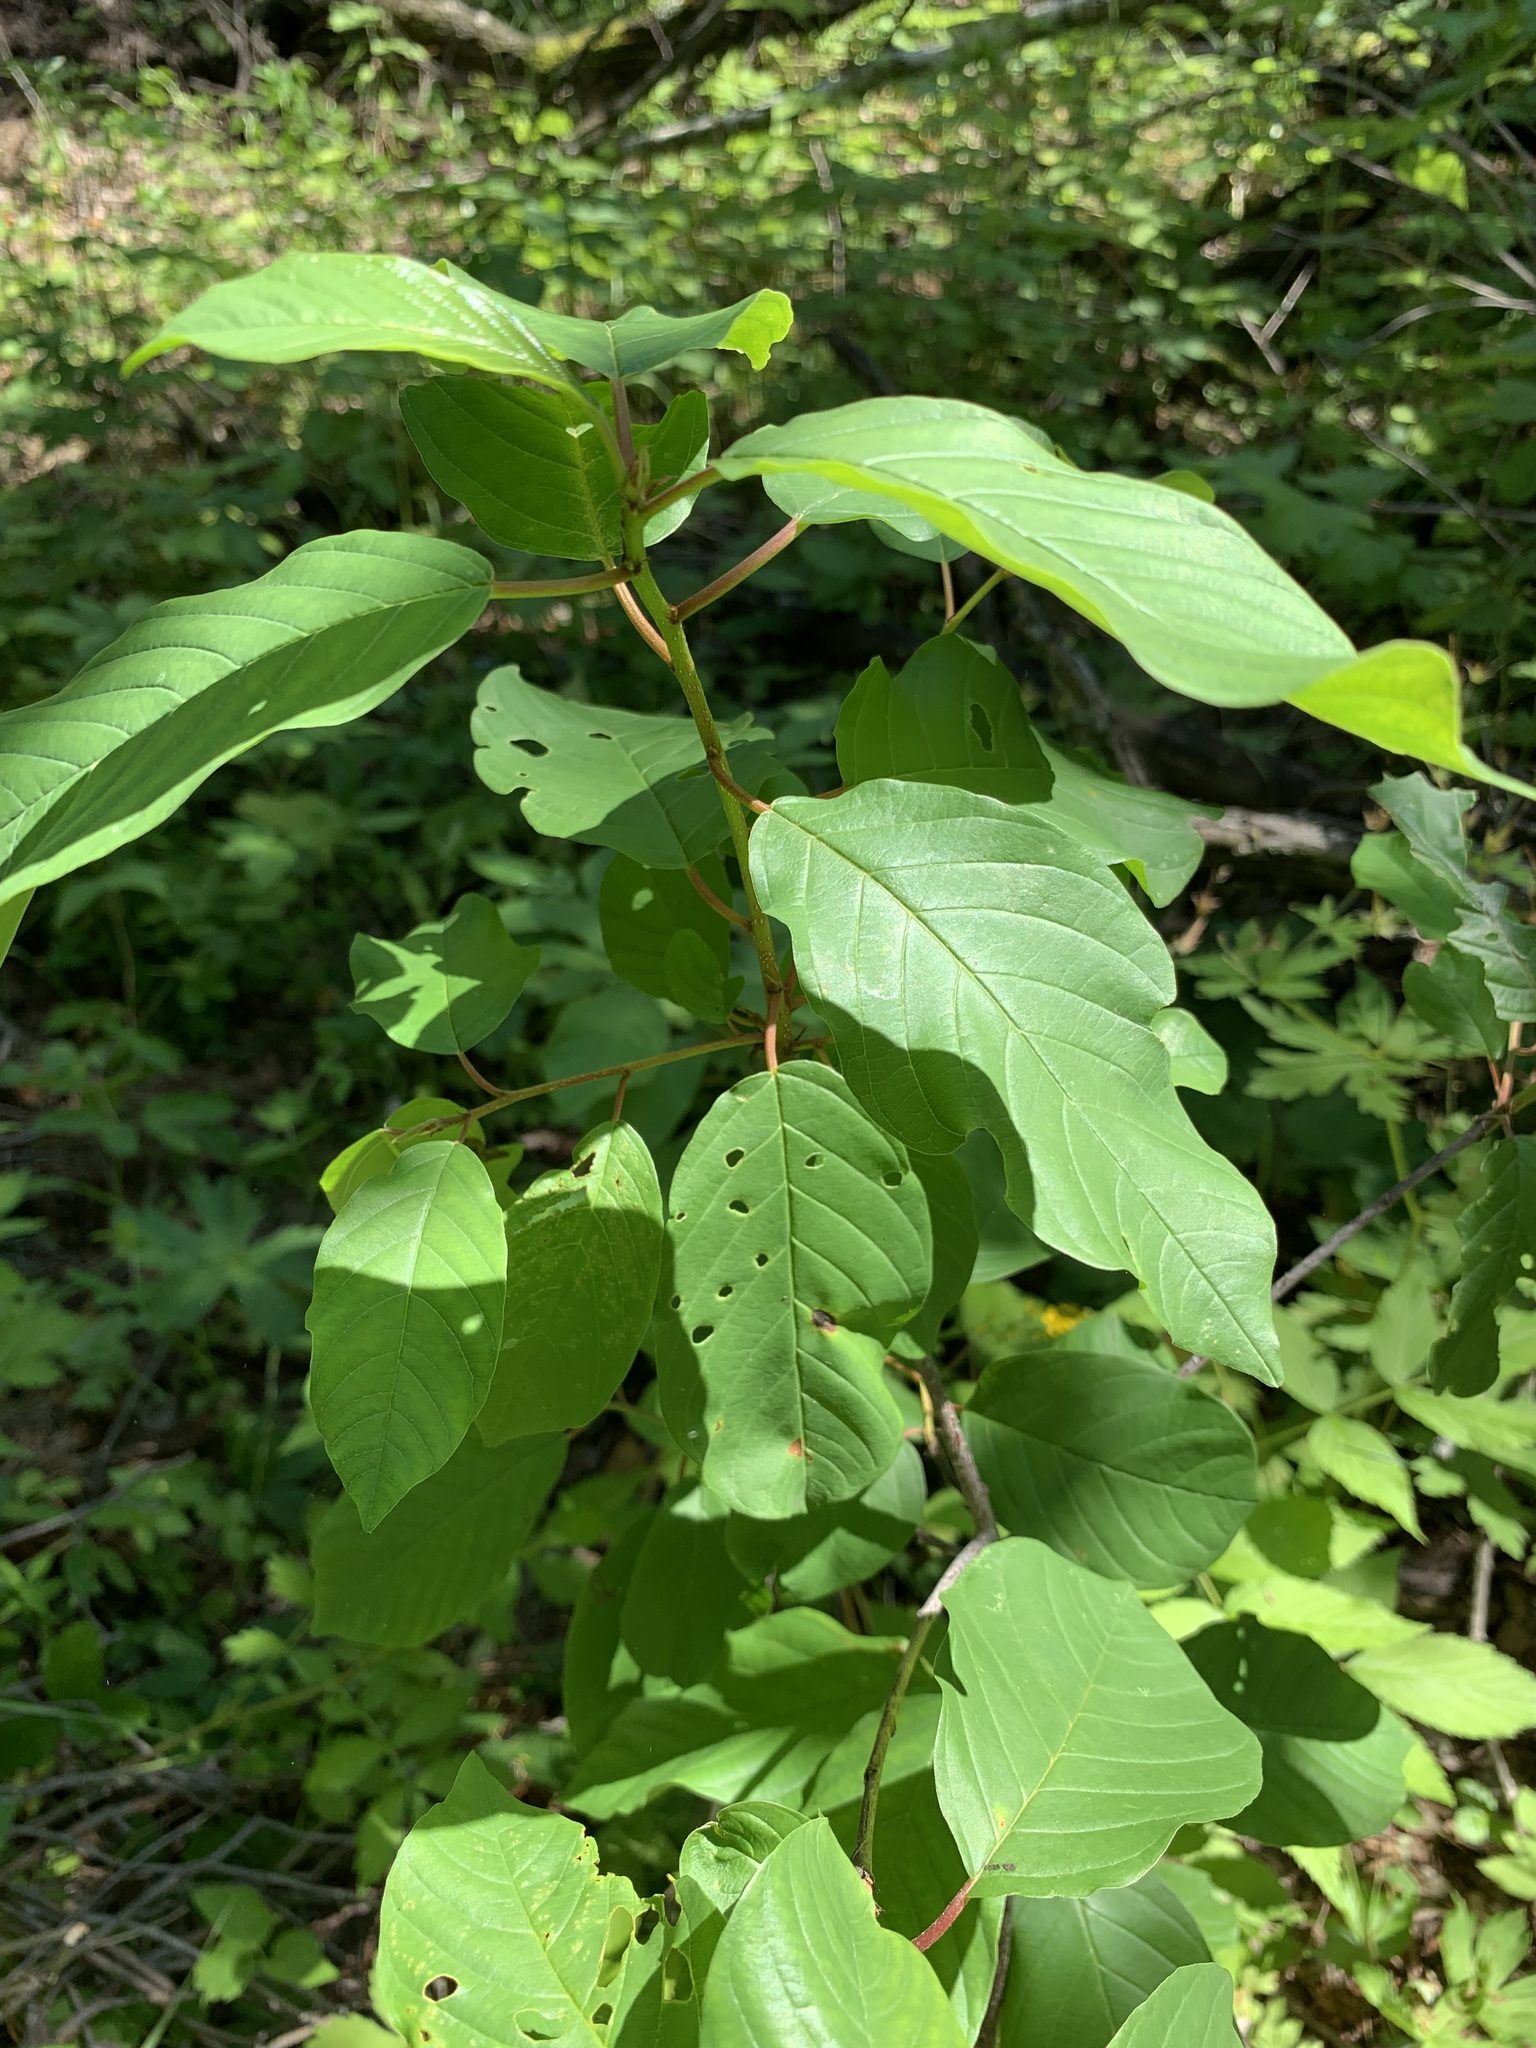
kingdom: Plantae
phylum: Tracheophyta
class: Magnoliopsida
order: Rosales
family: Rhamnaceae
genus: Frangula
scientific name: Frangula alnus
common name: Alder buckthorn
